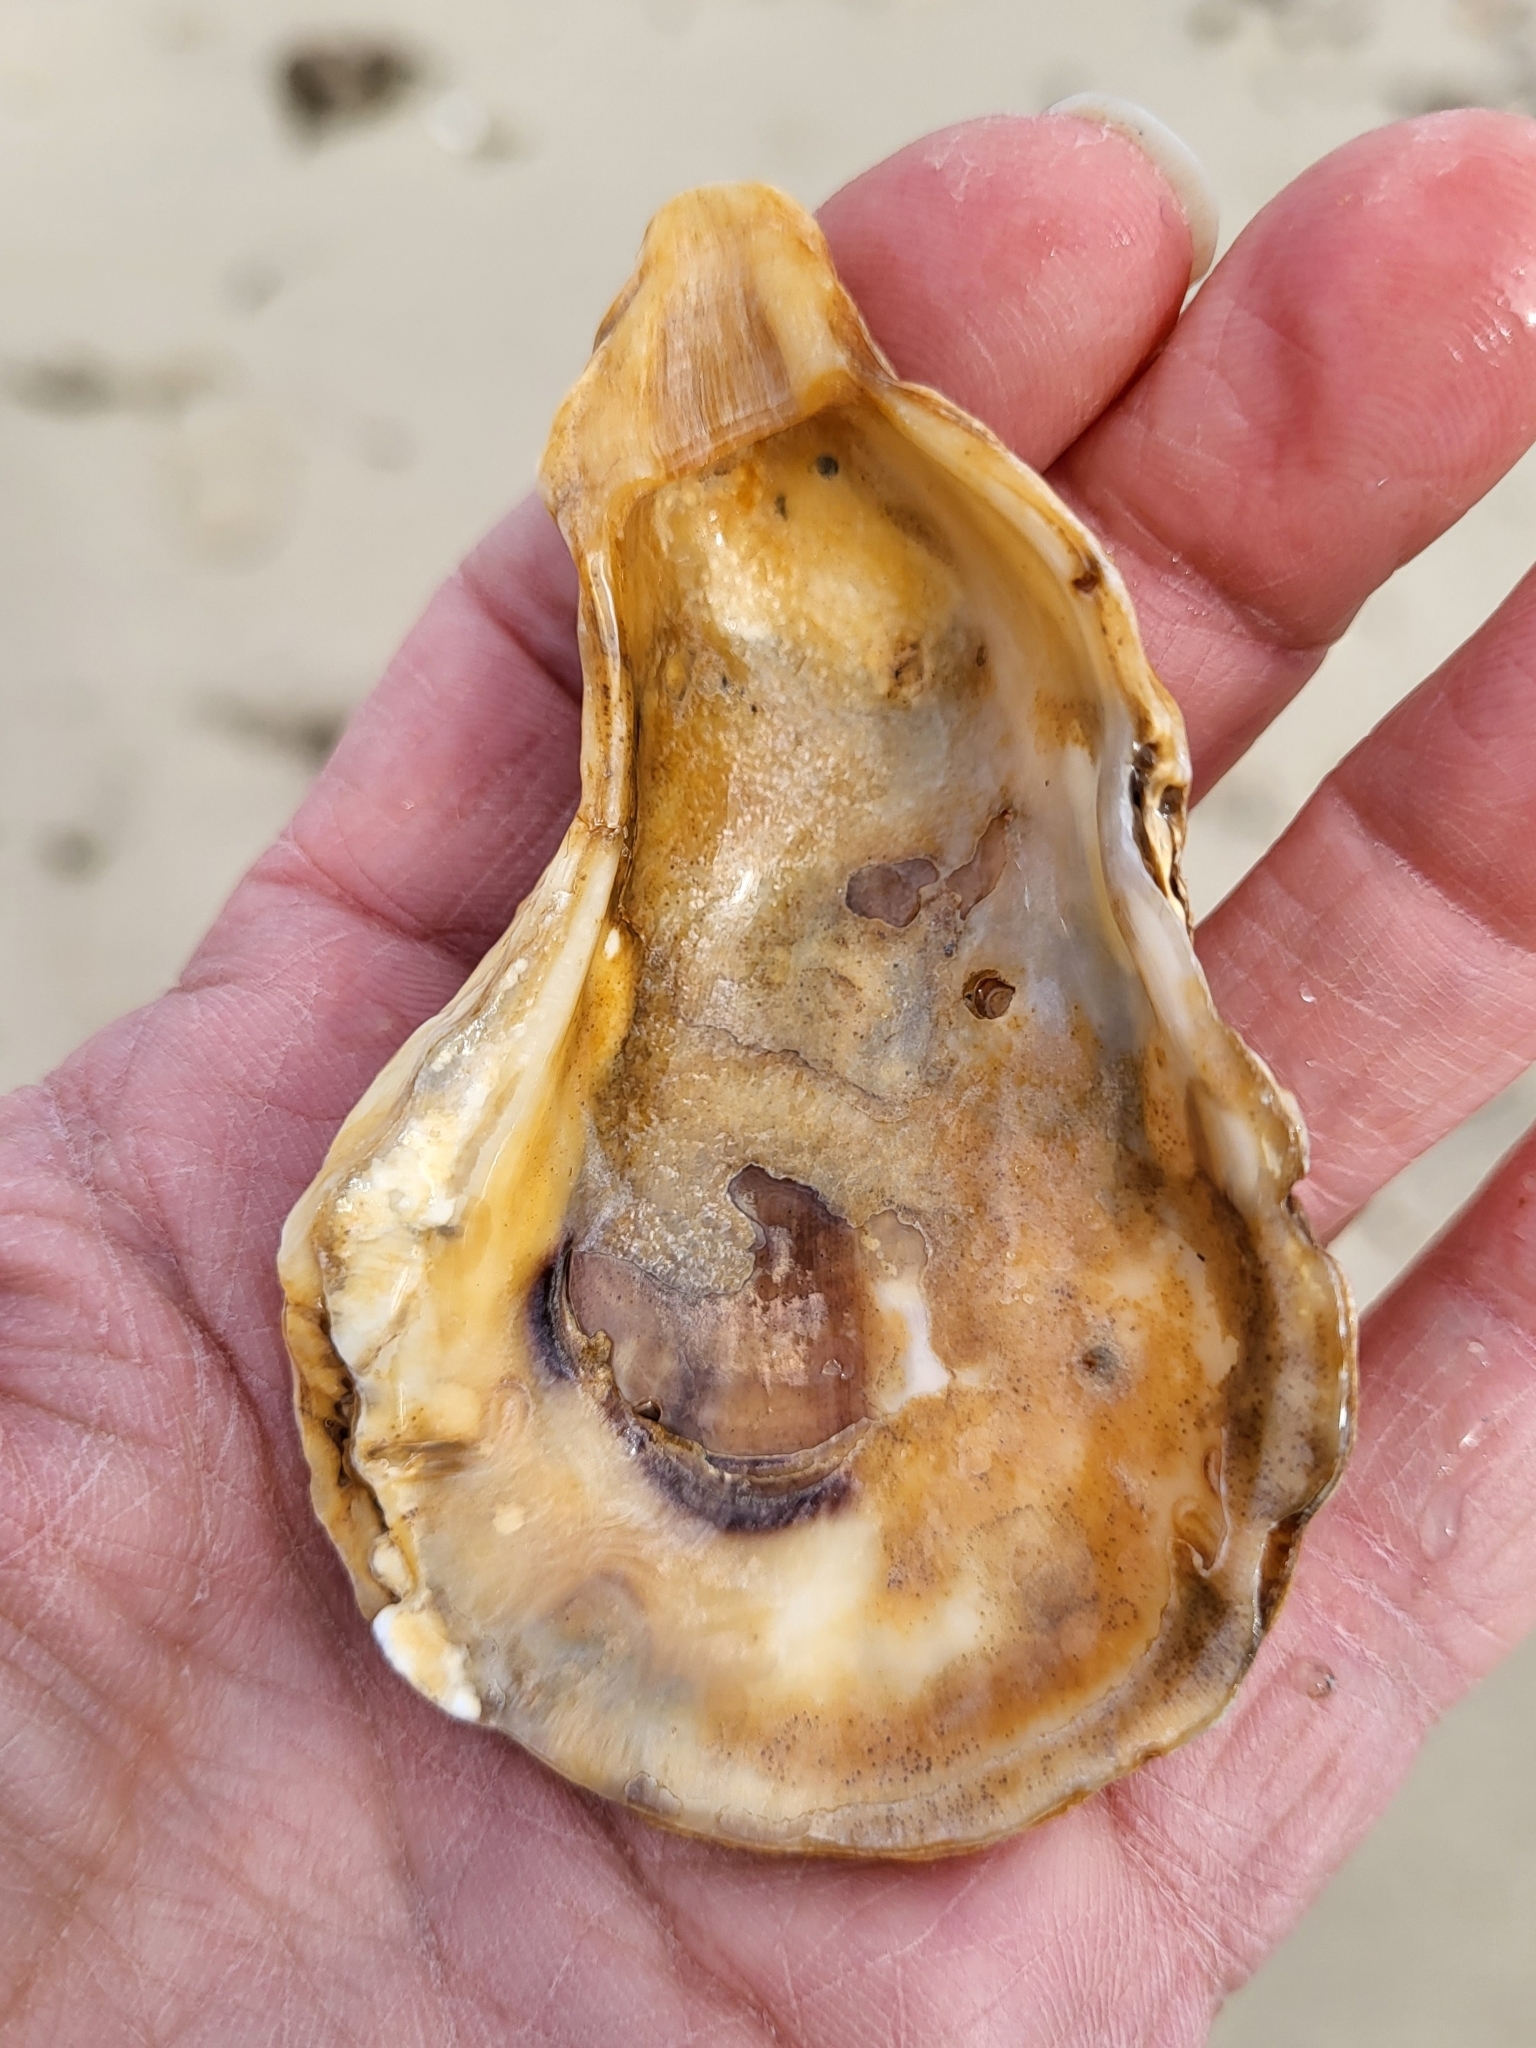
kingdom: Animalia
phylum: Mollusca
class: Bivalvia
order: Ostreida
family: Ostreidae
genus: Crassostrea
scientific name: Crassostrea virginica
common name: American oyster
